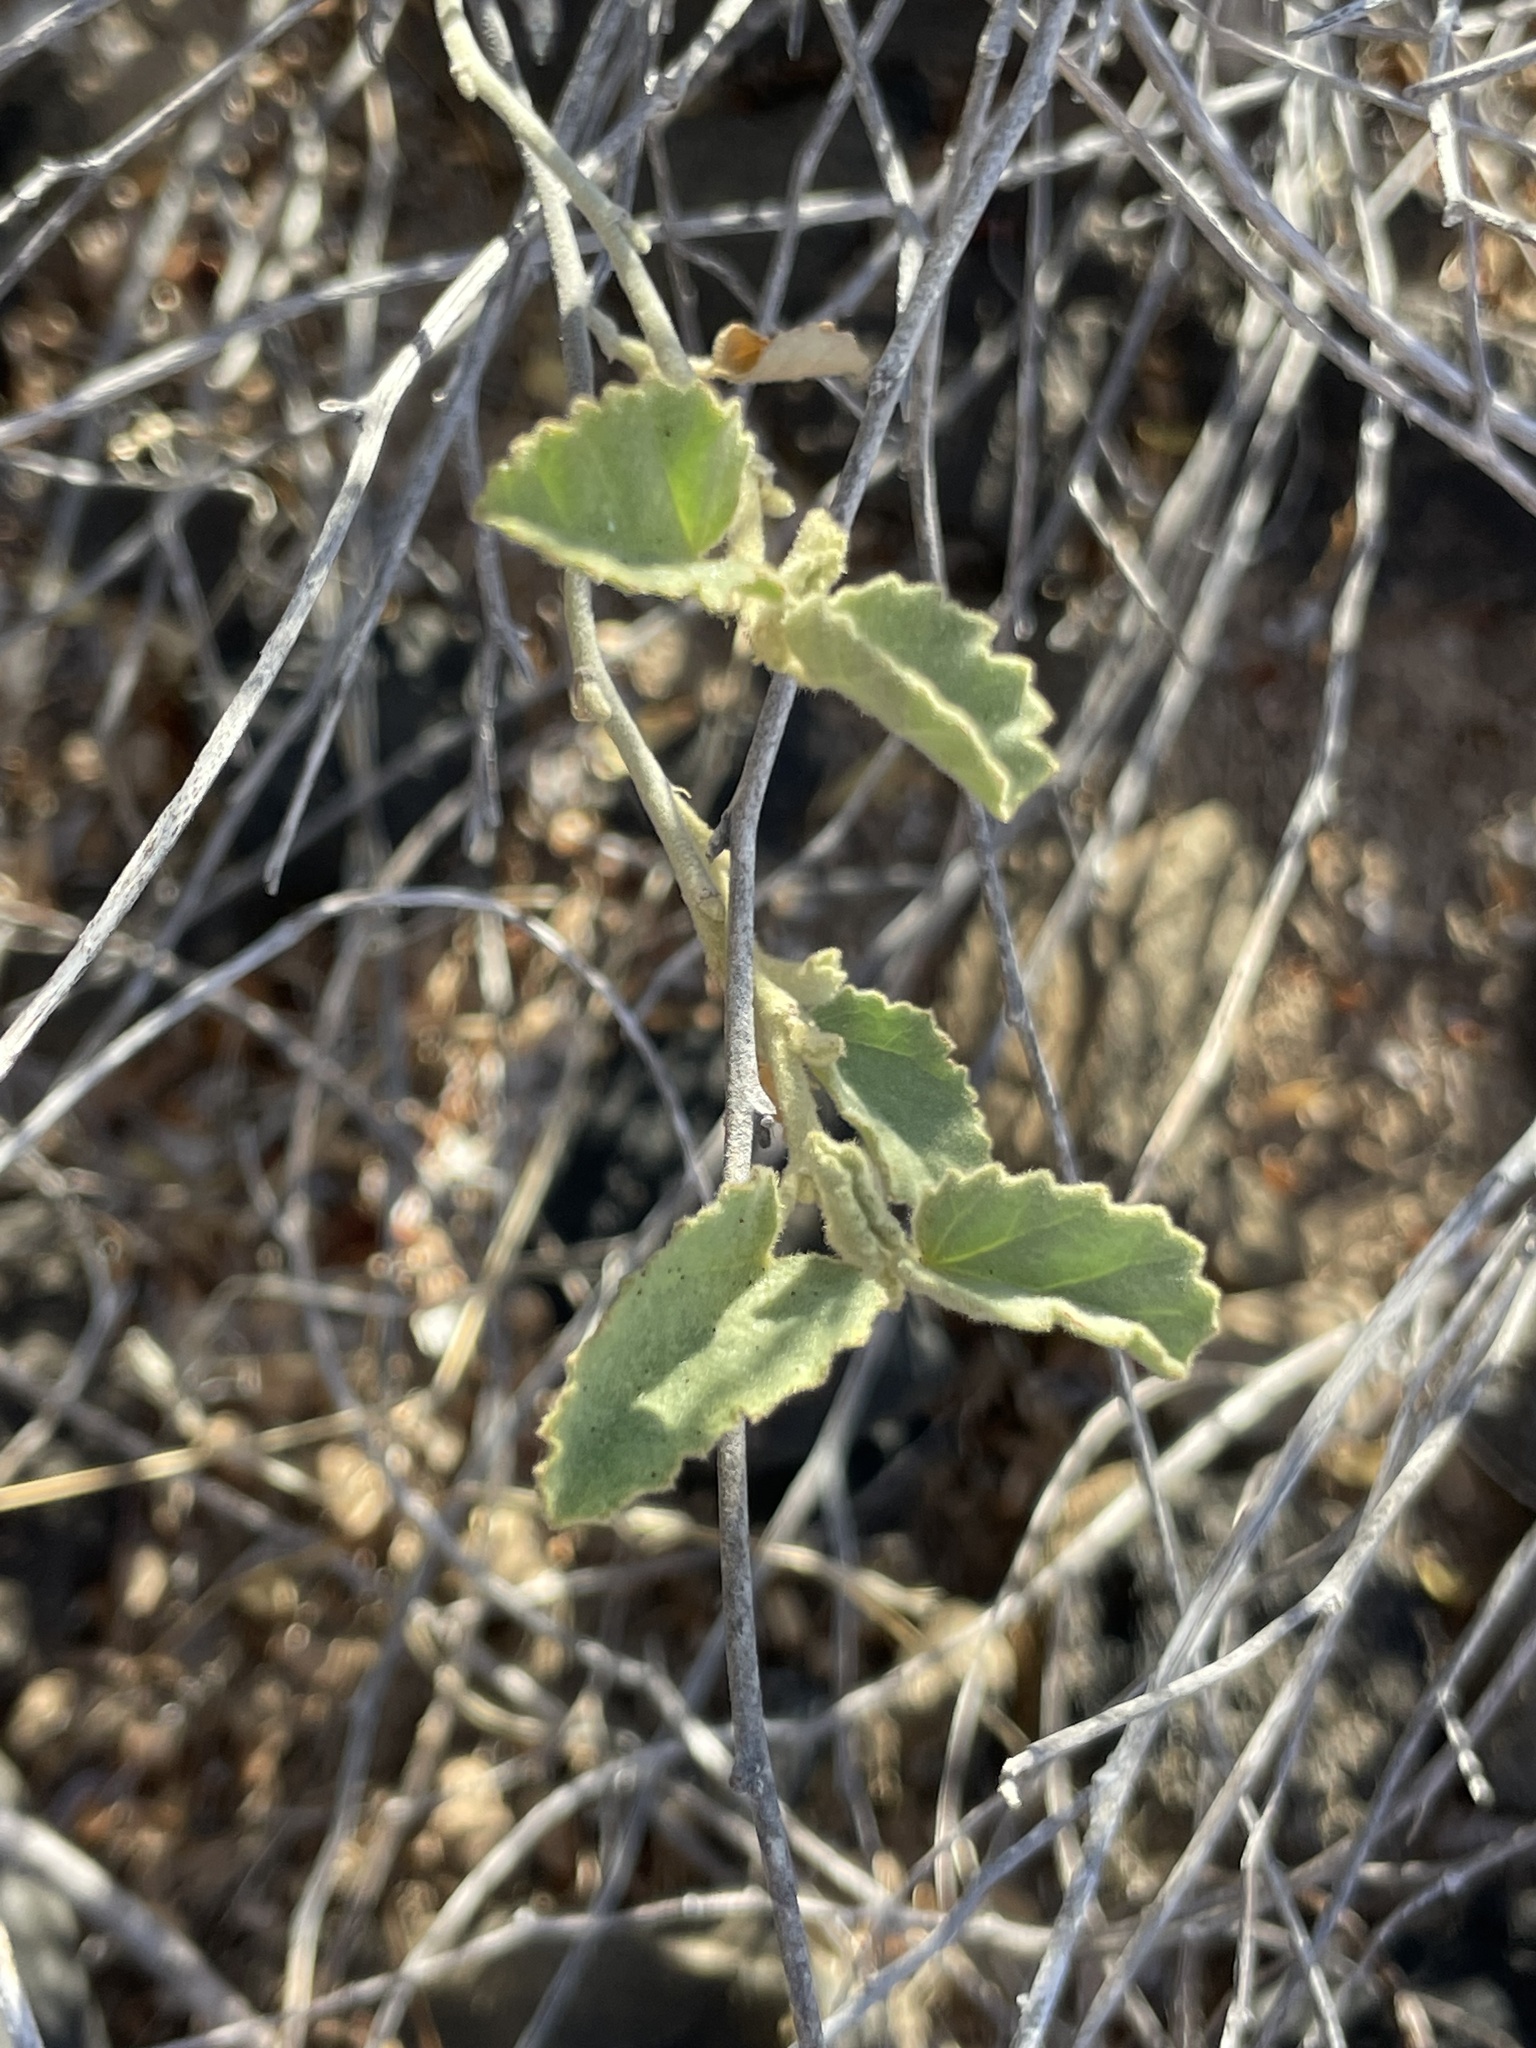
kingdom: Plantae
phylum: Tracheophyta
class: Magnoliopsida
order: Malvales
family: Malvaceae
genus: Hibiscus
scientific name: Hibiscus denudatus
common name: Paleface
